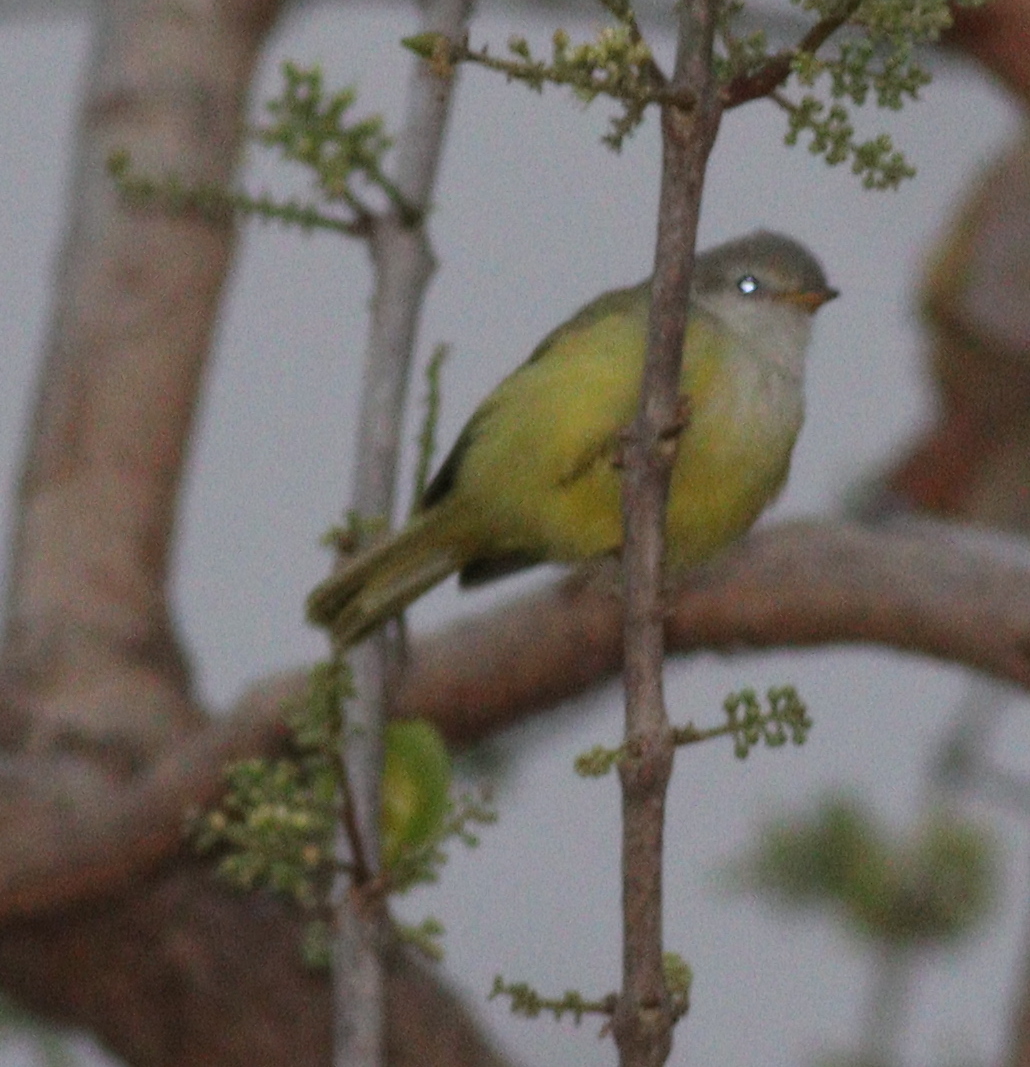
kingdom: Animalia
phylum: Chordata
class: Aves
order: Passeriformes
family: Cisticolidae
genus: Eremomela
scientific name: Eremomela pusilla
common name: Senegal eremomela
